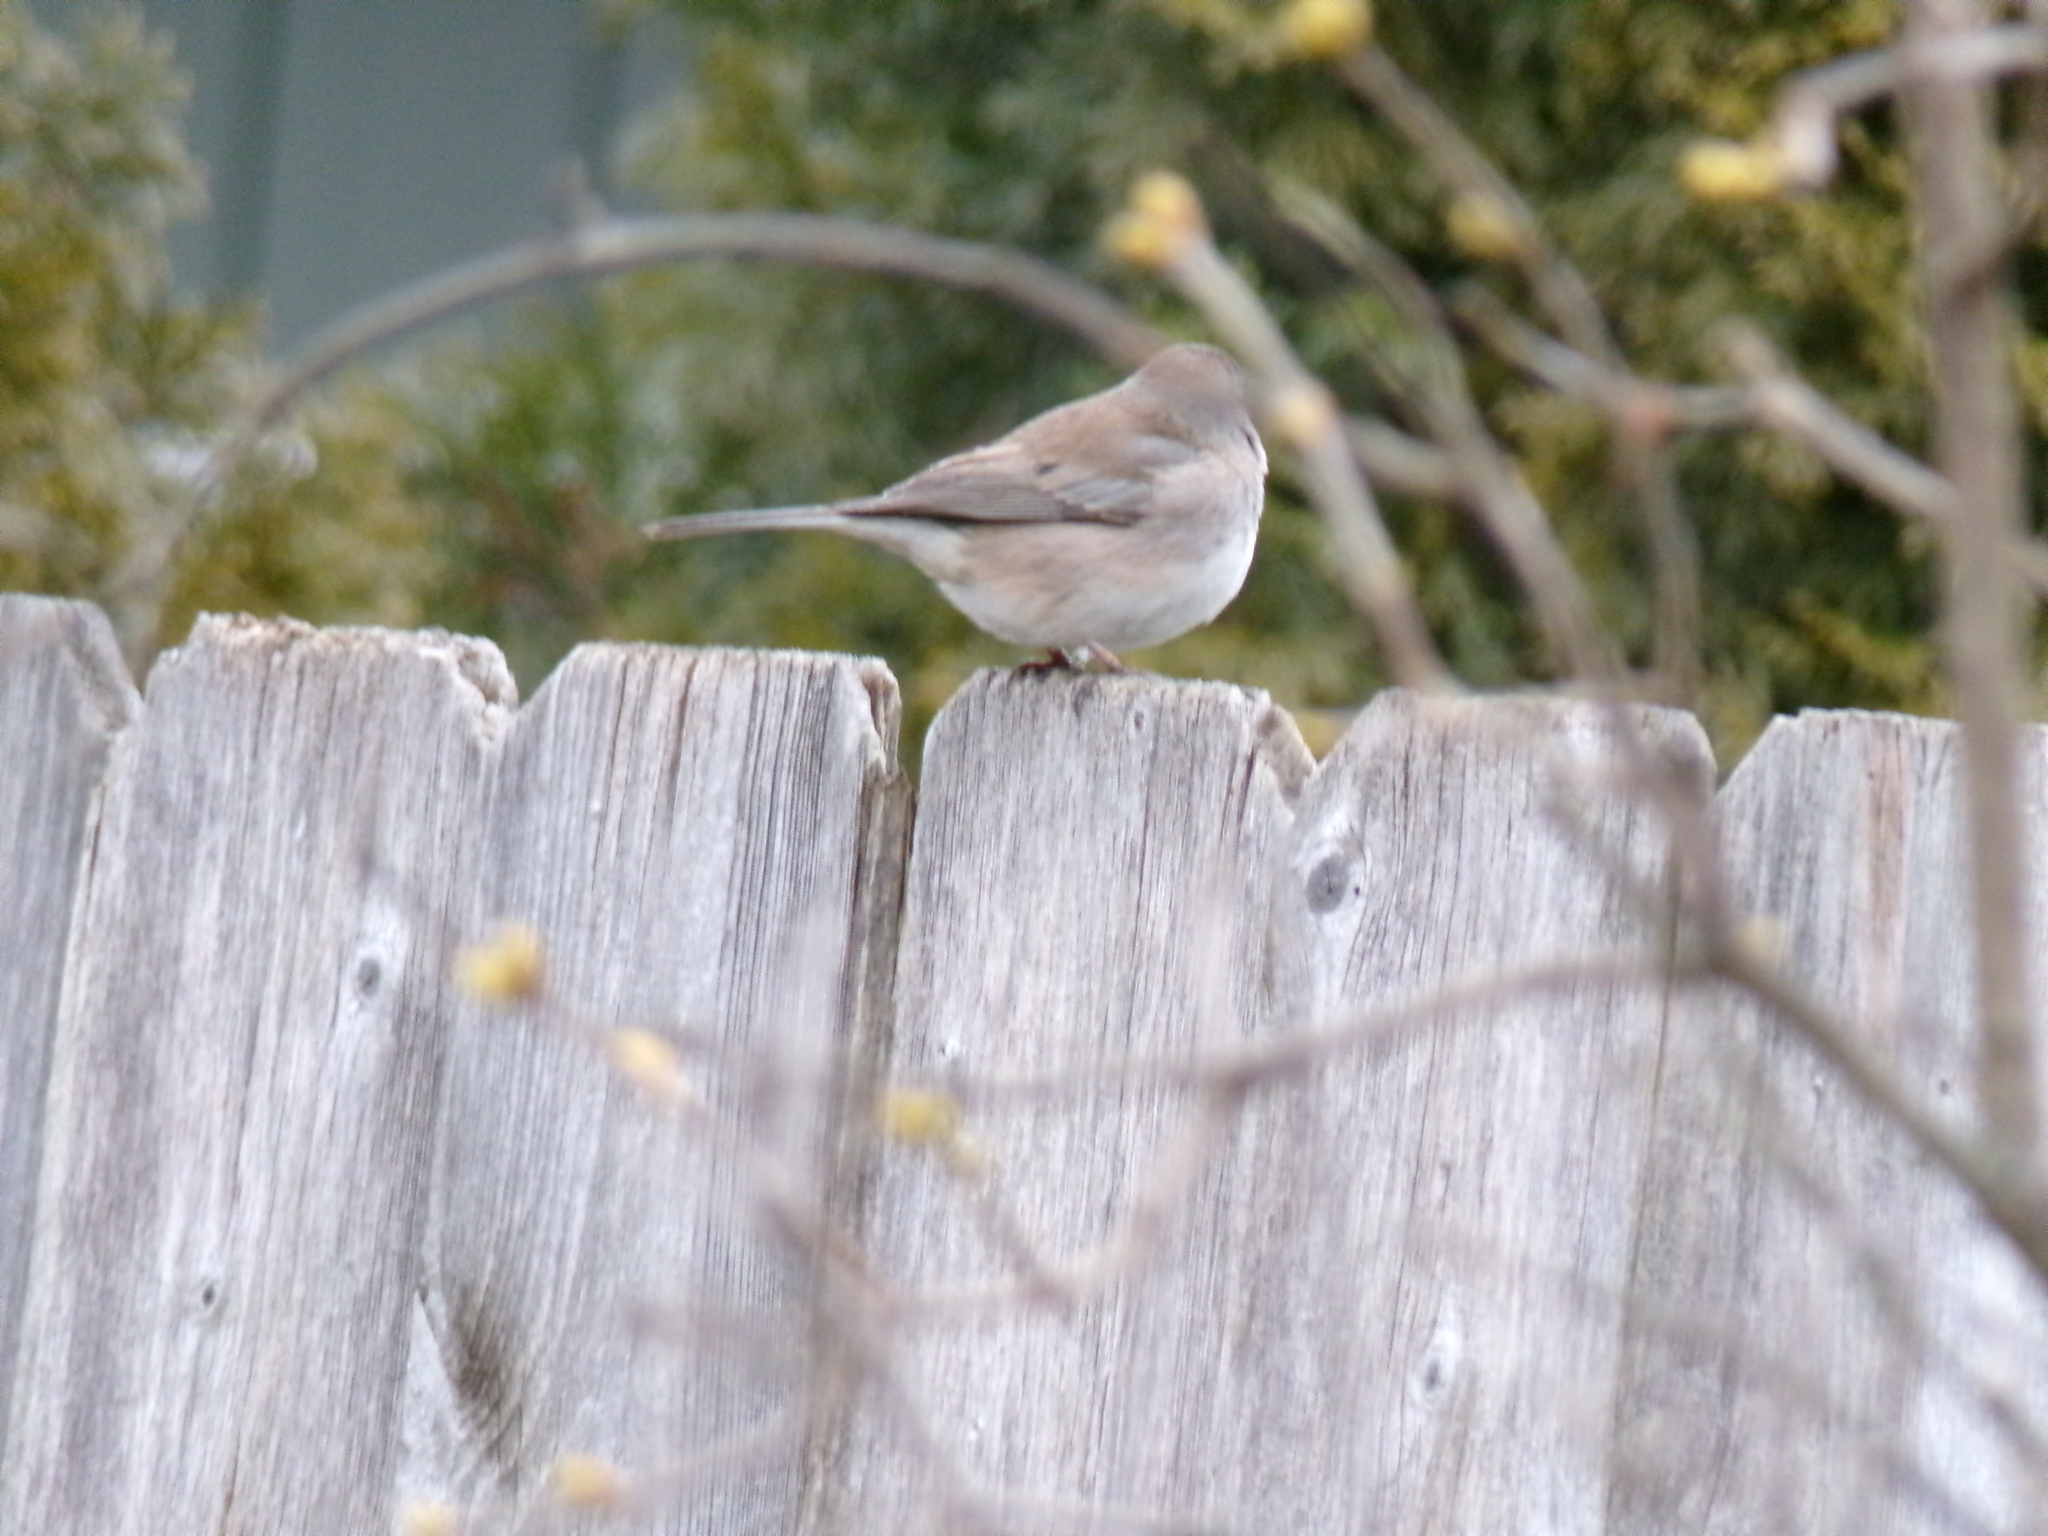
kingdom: Animalia
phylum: Chordata
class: Aves
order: Passeriformes
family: Passerellidae
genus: Junco
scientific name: Junco hyemalis
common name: Dark-eyed junco
